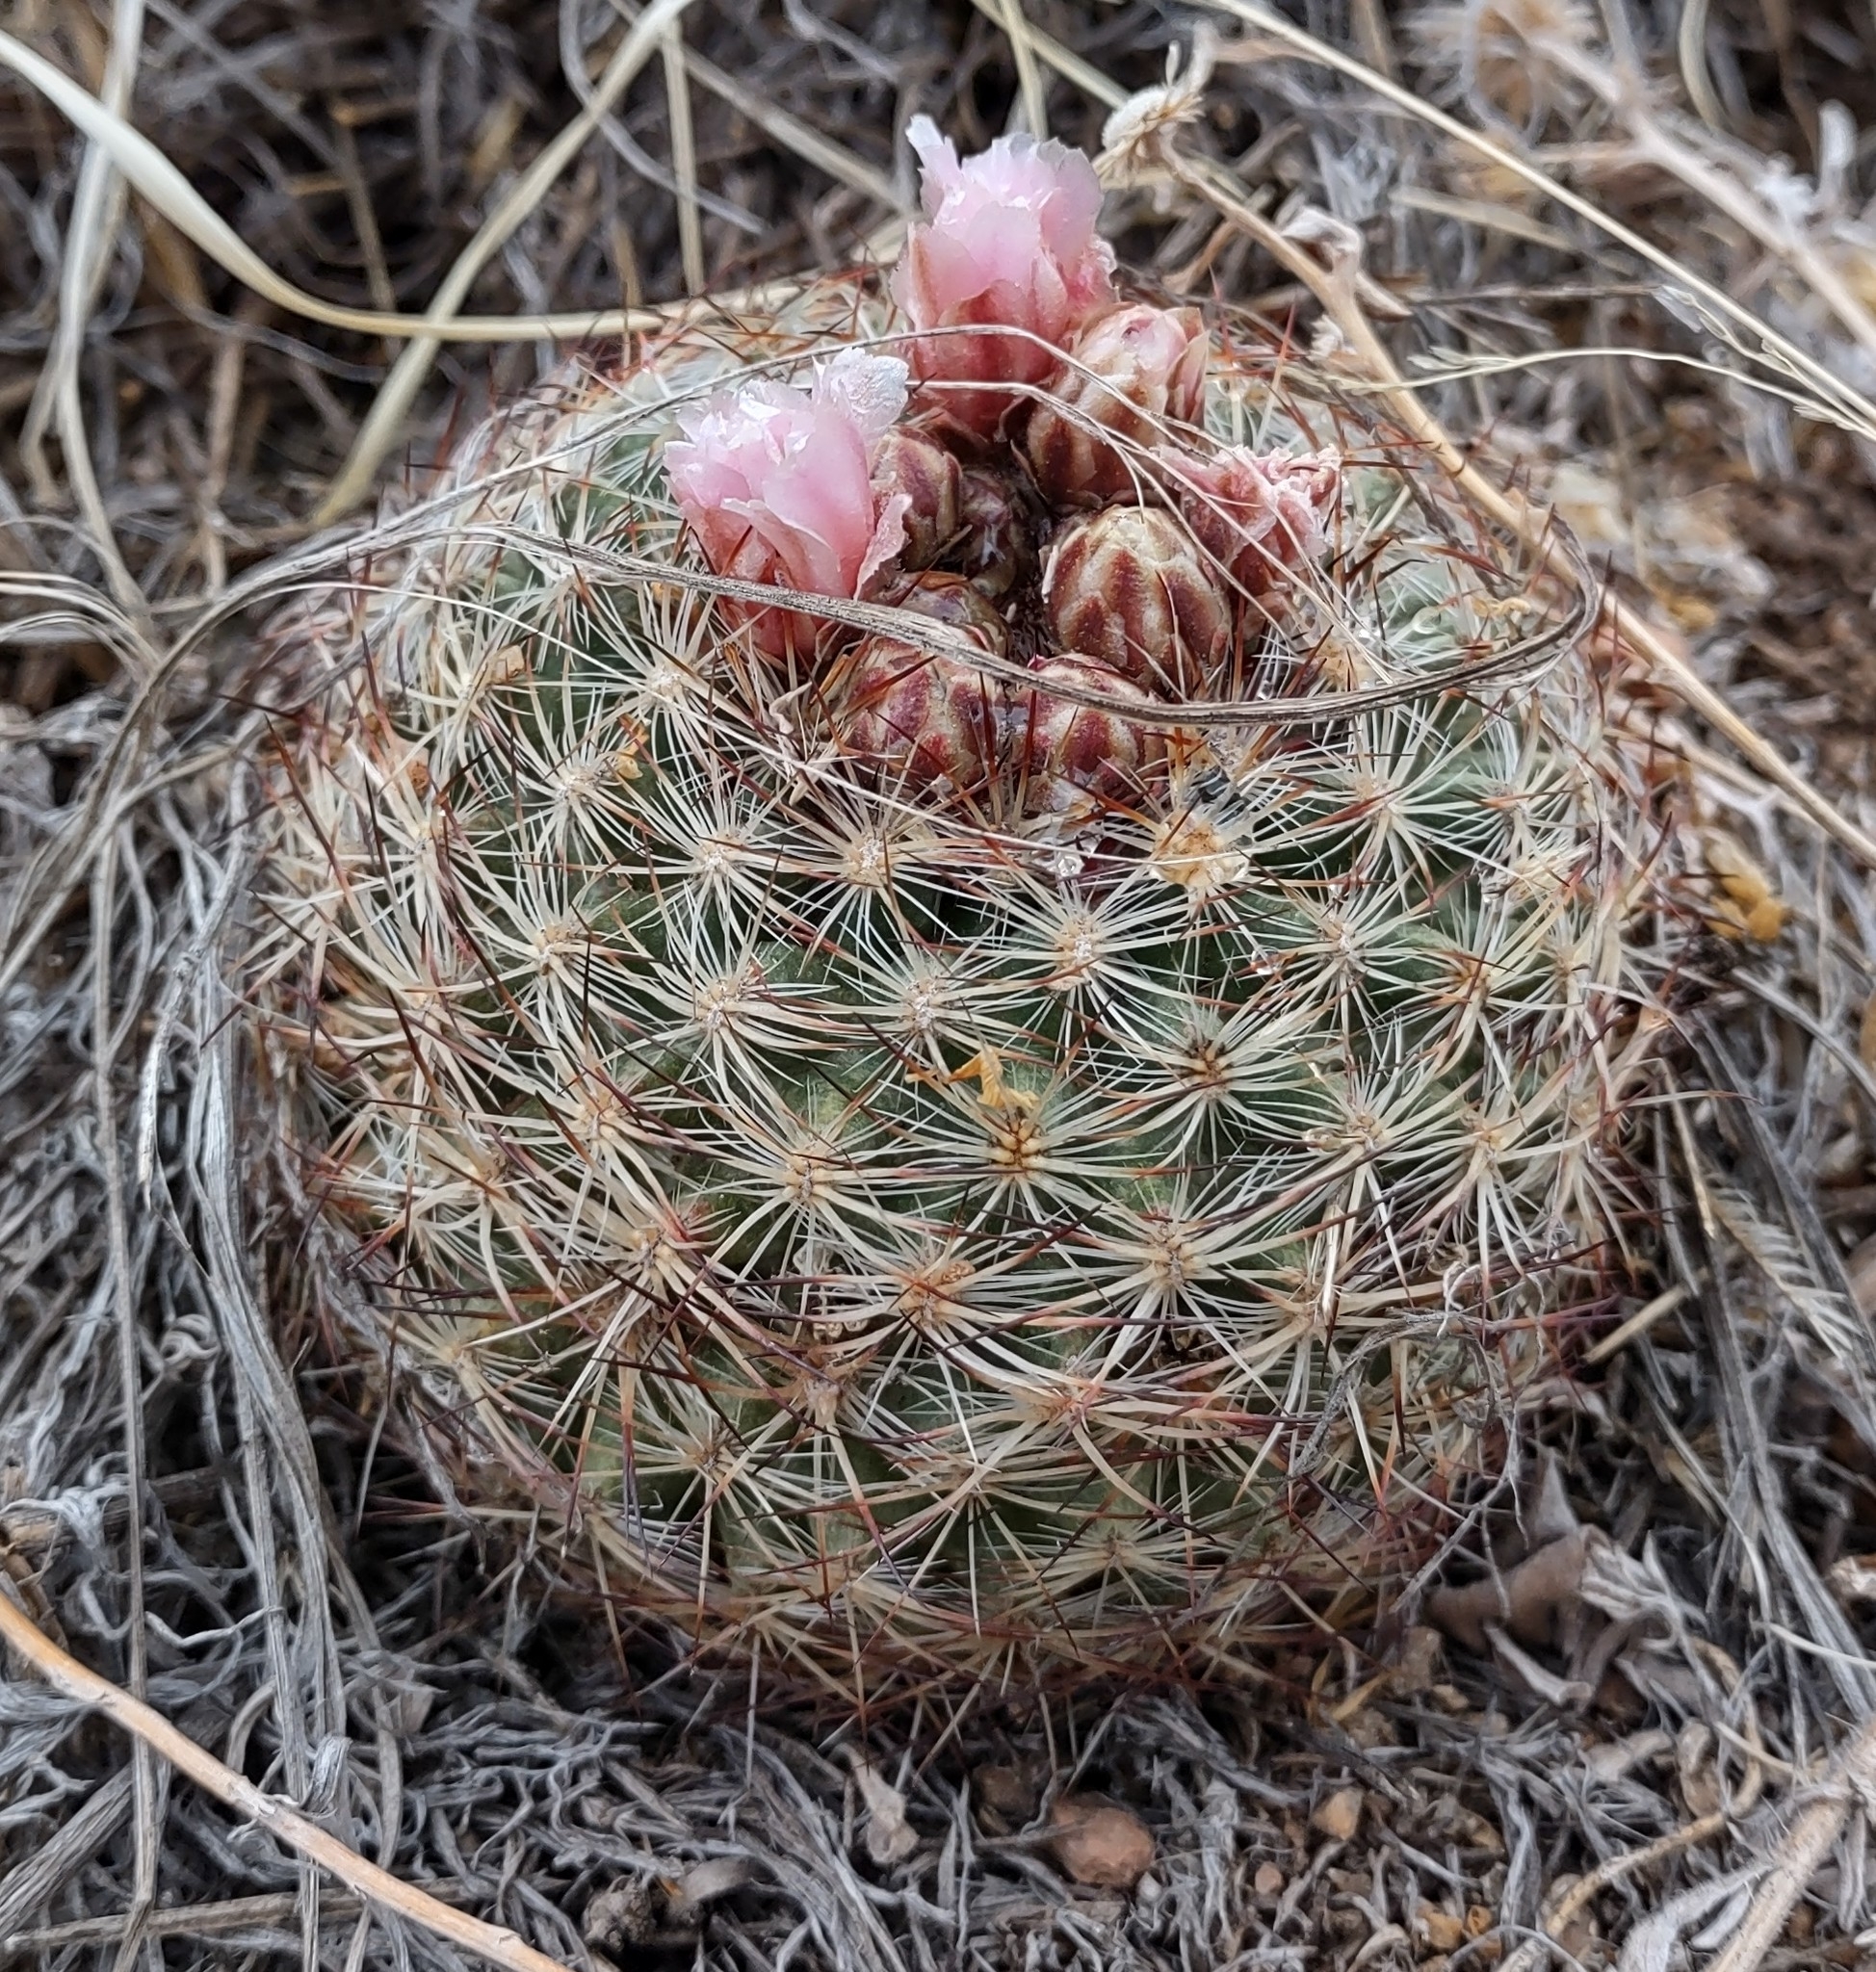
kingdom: Plantae
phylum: Tracheophyta
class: Magnoliopsida
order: Caryophyllales
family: Cactaceae
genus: Pediocactus
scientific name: Pediocactus simpsonii
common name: Simpson's hedgehog cactus
